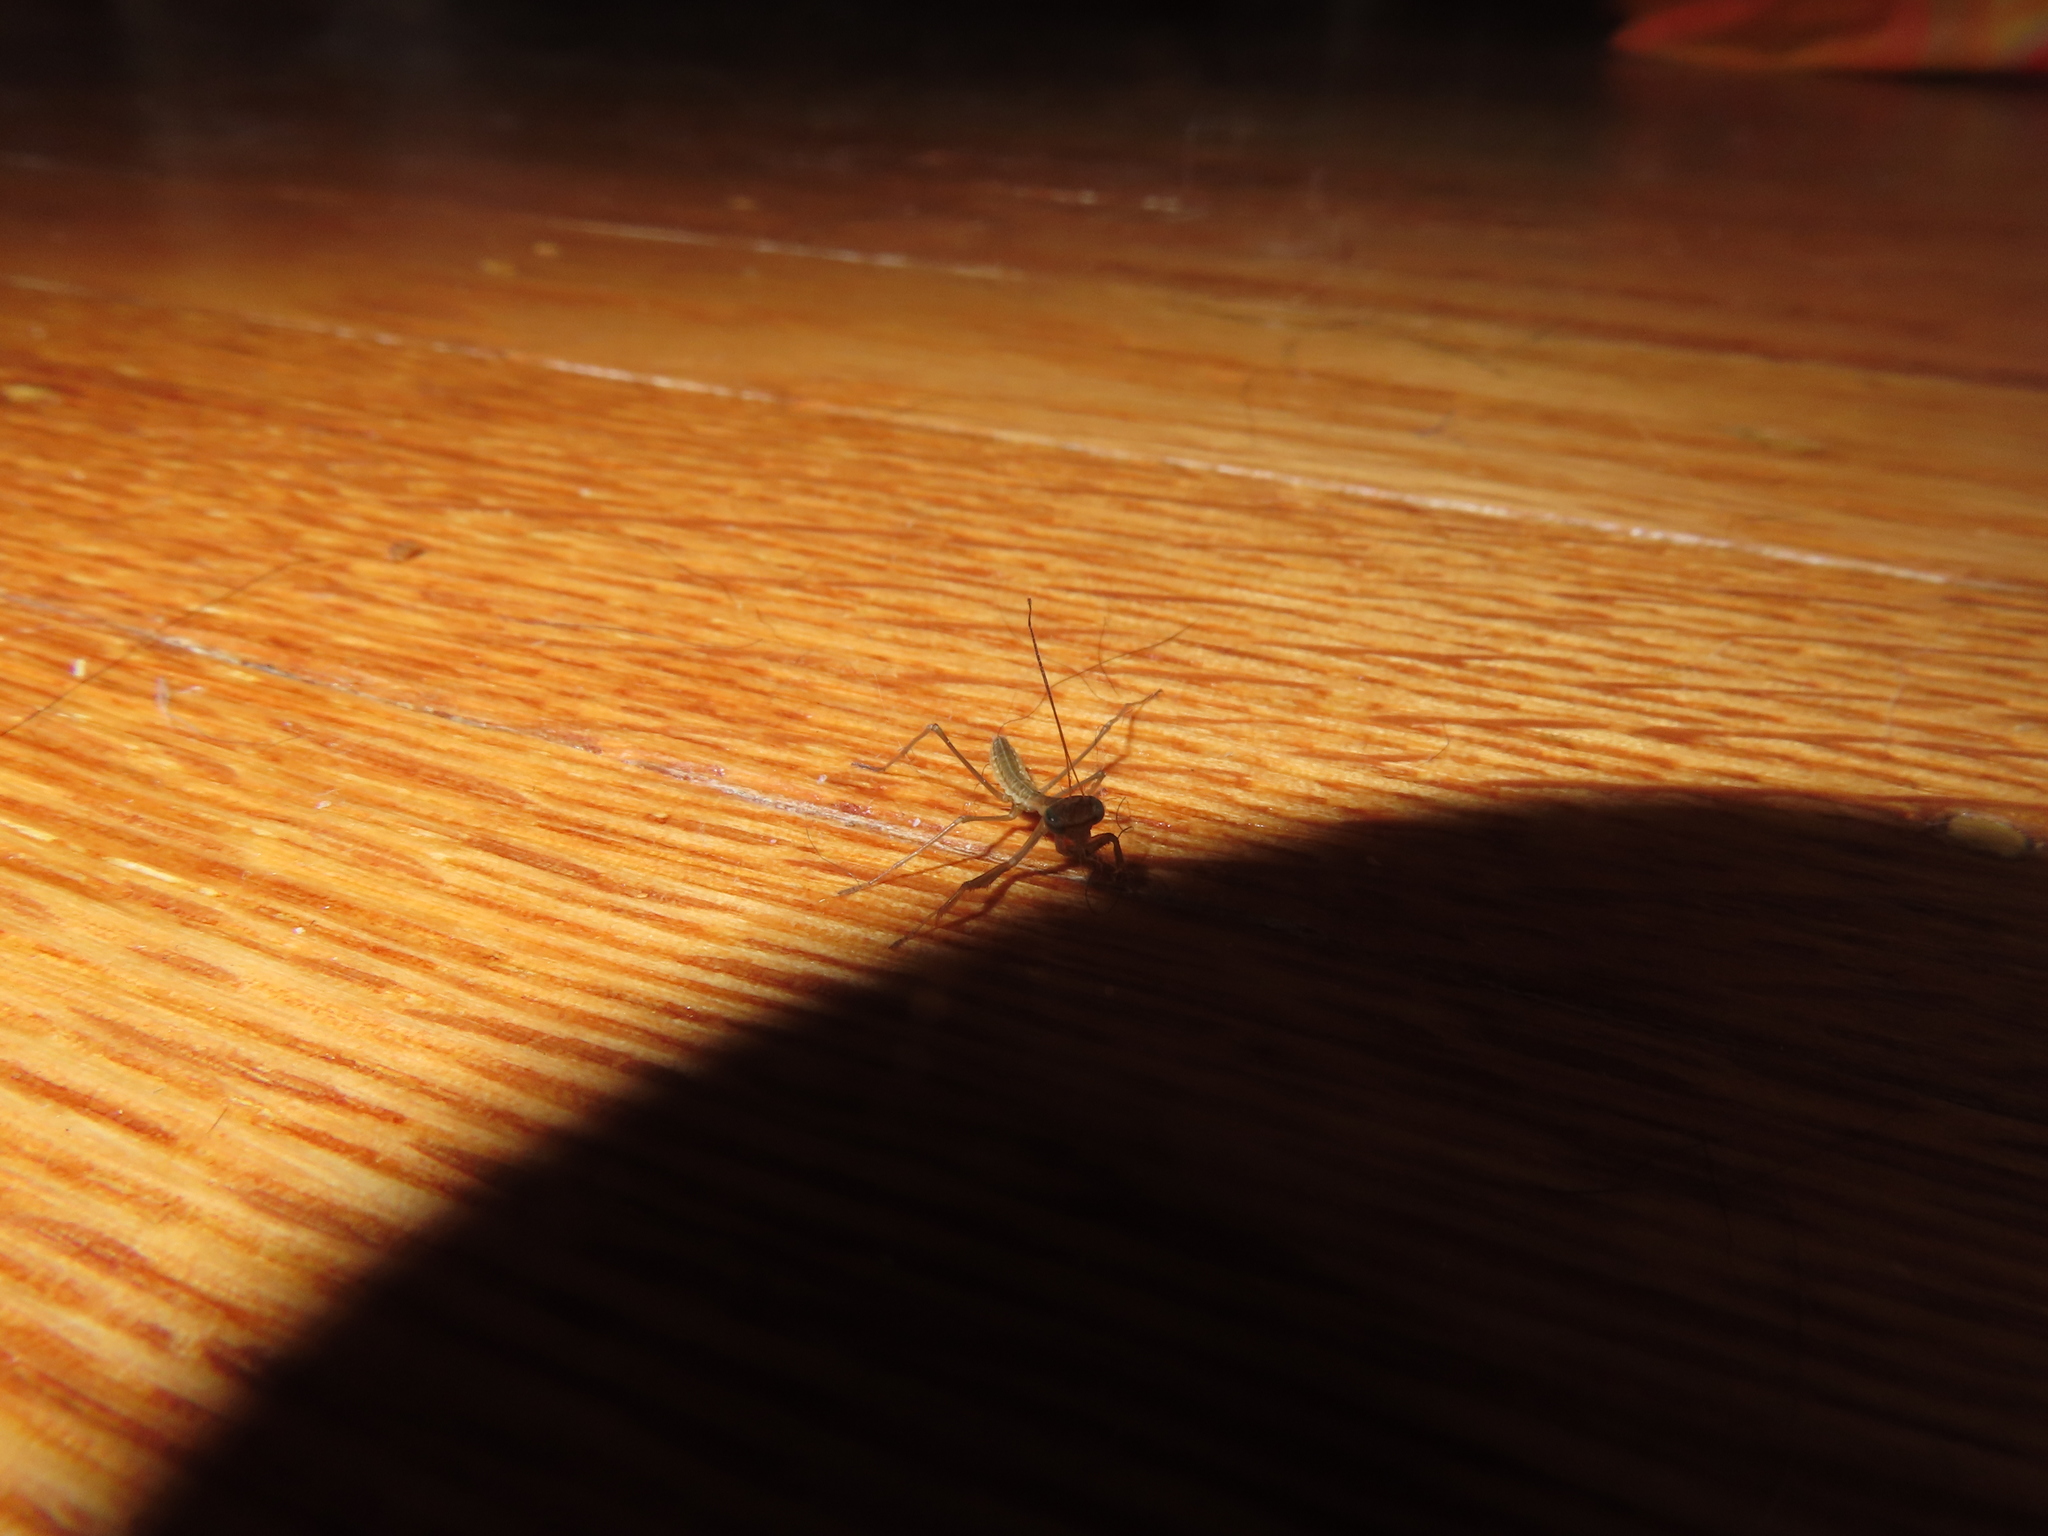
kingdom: Animalia
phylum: Arthropoda
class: Insecta
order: Mantodea
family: Mantidae
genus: Tenodera
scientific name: Tenodera sinensis
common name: Chinese mantis
